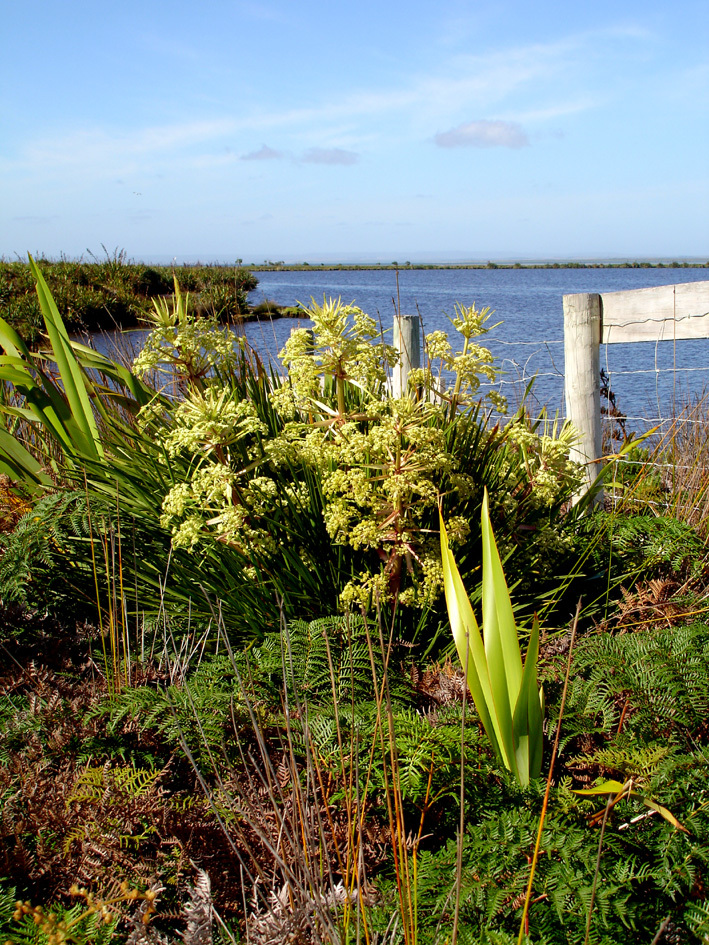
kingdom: Plantae
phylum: Tracheophyta
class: Magnoliopsida
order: Apiales
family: Apiaceae
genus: Aciphylla
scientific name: Aciphylla traversii
